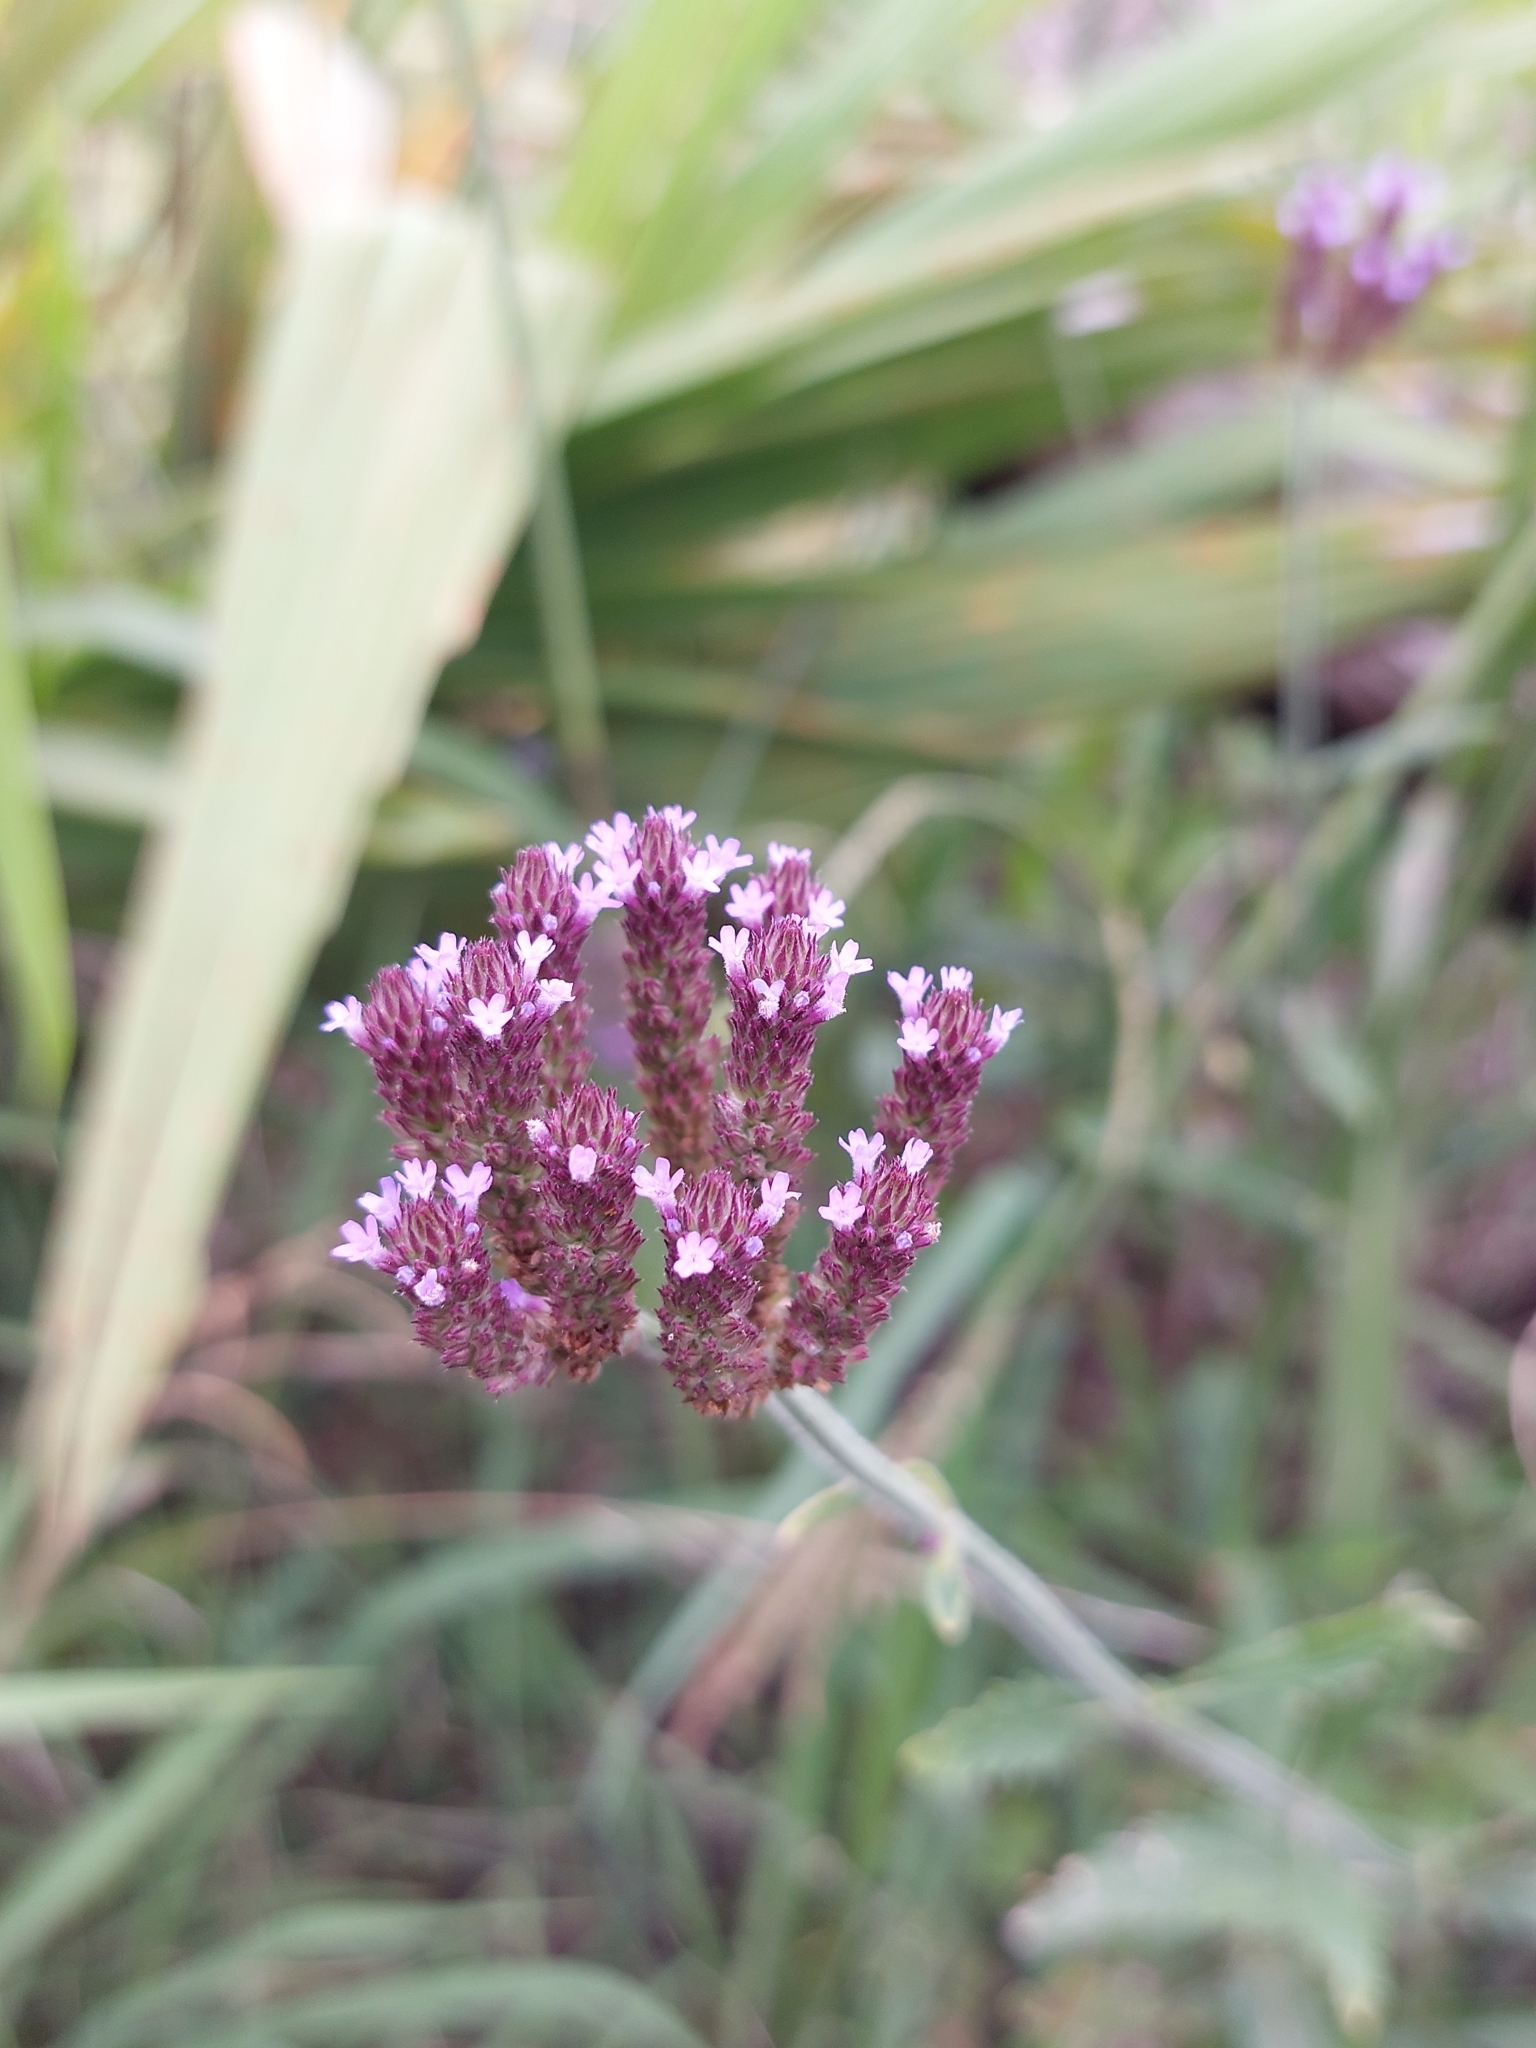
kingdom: Plantae
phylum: Tracheophyta
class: Magnoliopsida
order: Lamiales
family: Verbenaceae
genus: Verbena
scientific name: Verbena incompta
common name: Purpletop vervain
